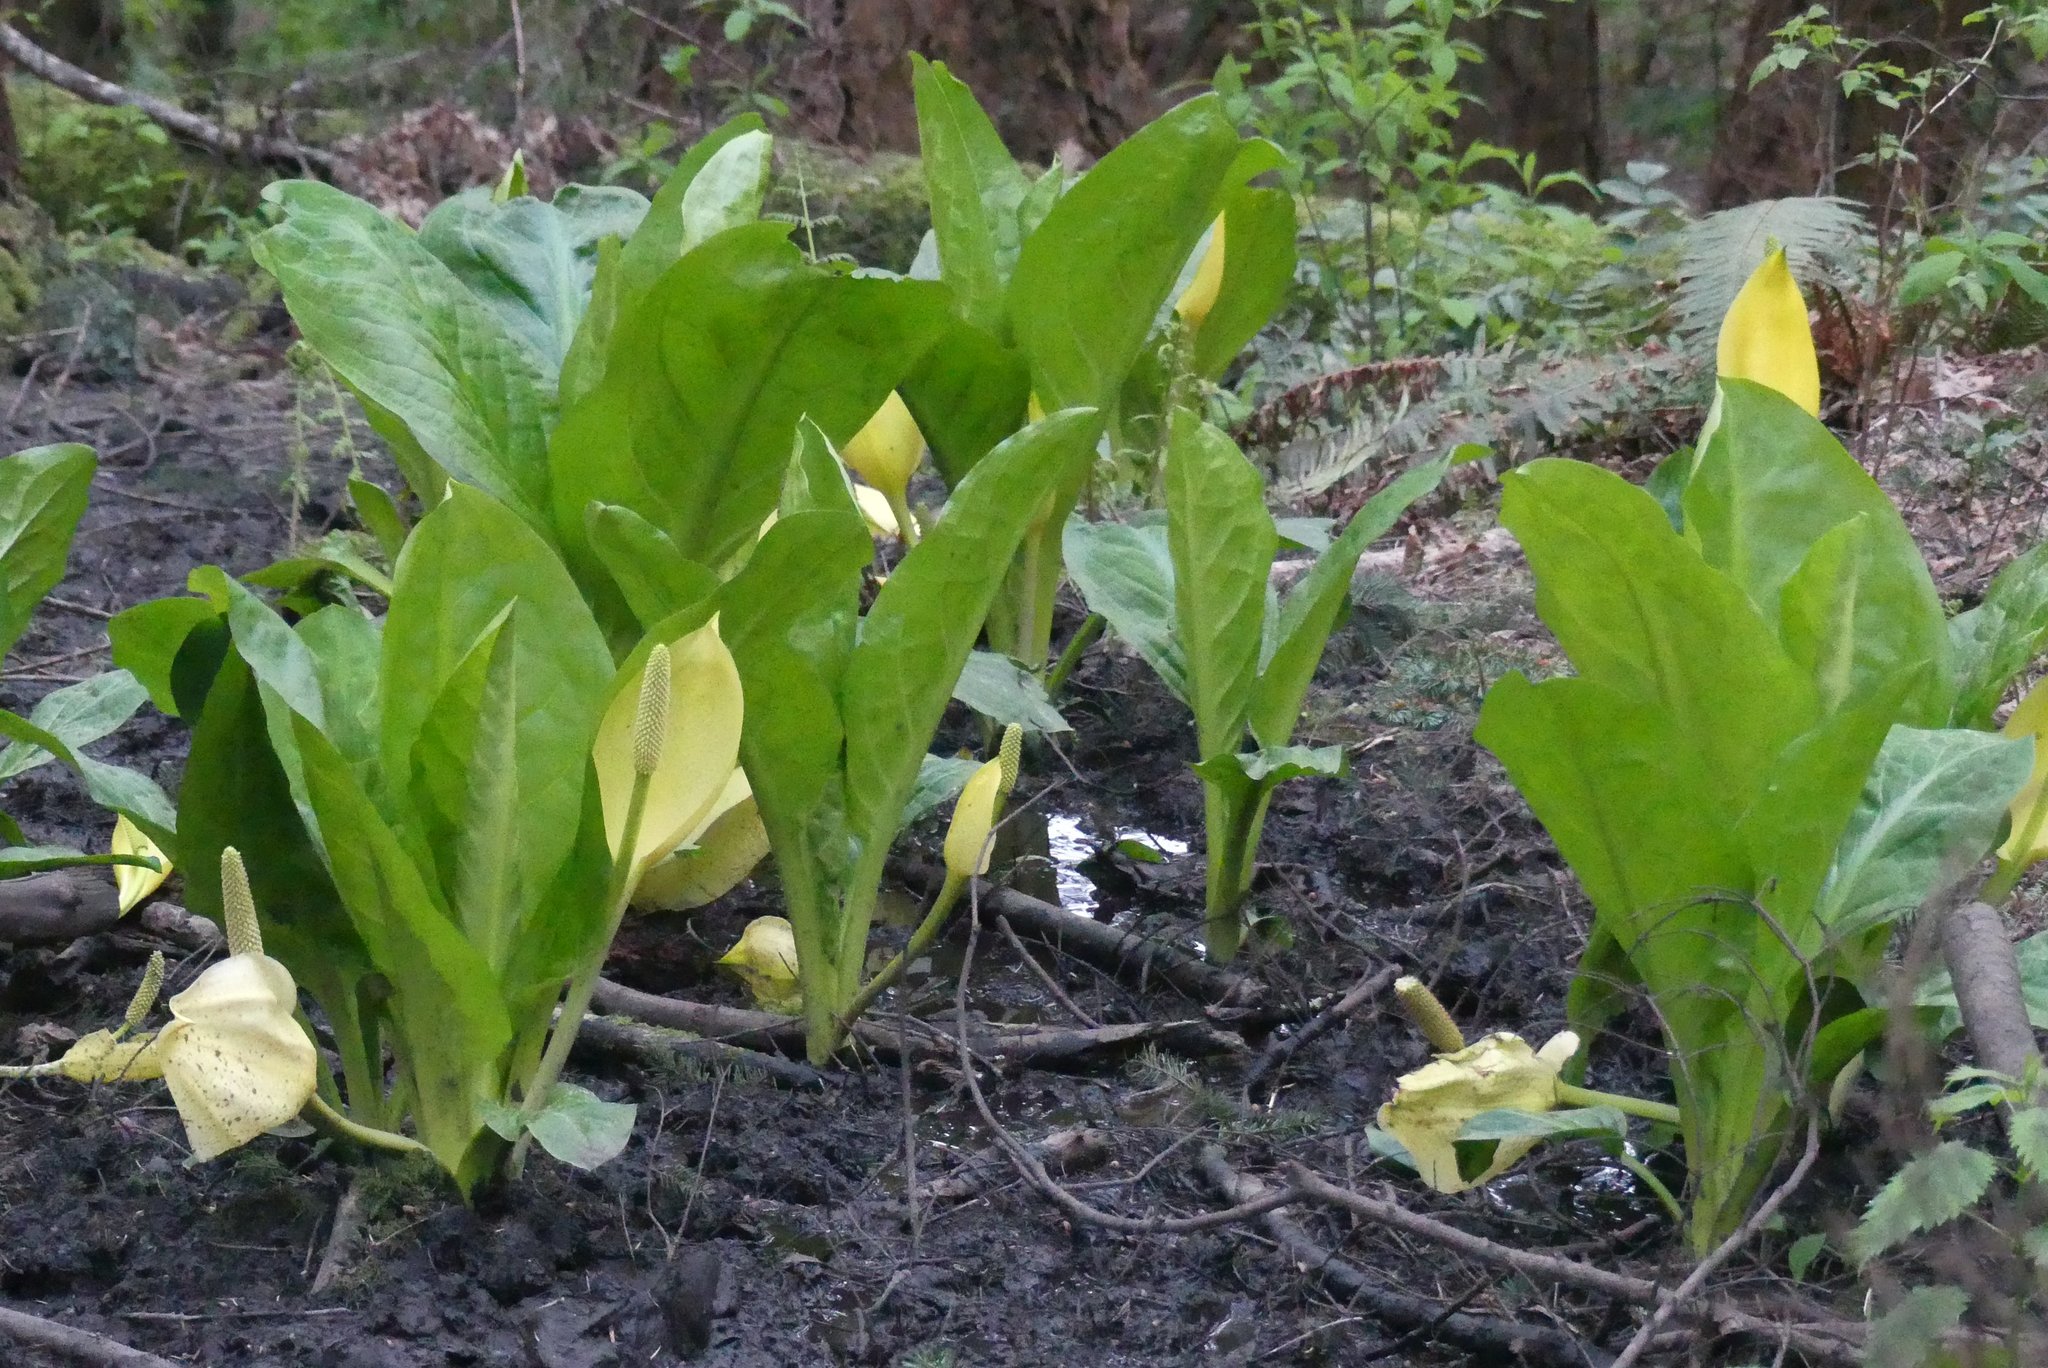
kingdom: Plantae
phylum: Tracheophyta
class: Liliopsida
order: Alismatales
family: Araceae
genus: Lysichiton
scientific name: Lysichiton americanus
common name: American skunk cabbage
